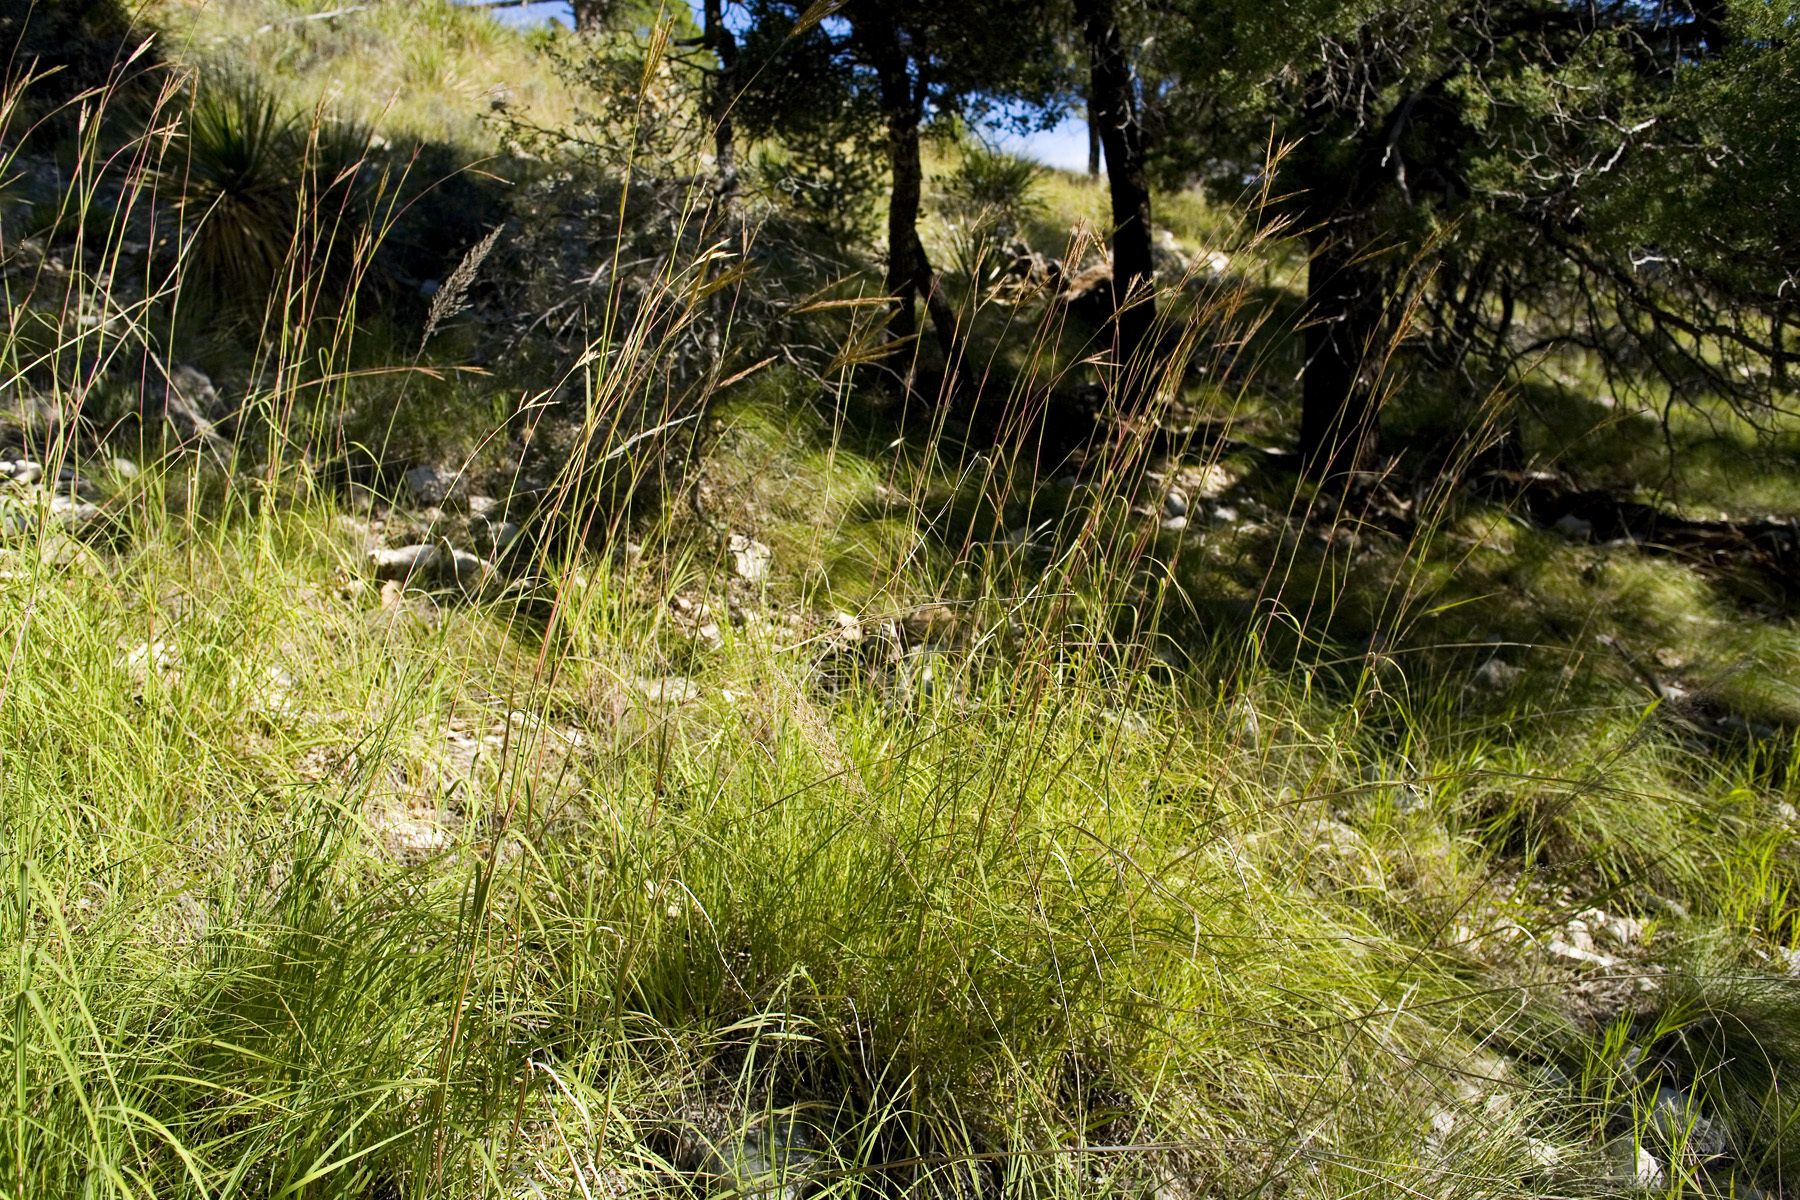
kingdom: Plantae
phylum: Tracheophyta
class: Liliopsida
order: Poales
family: Poaceae
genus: Andropogon
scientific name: Andropogon gerardi
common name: Big bluestem
